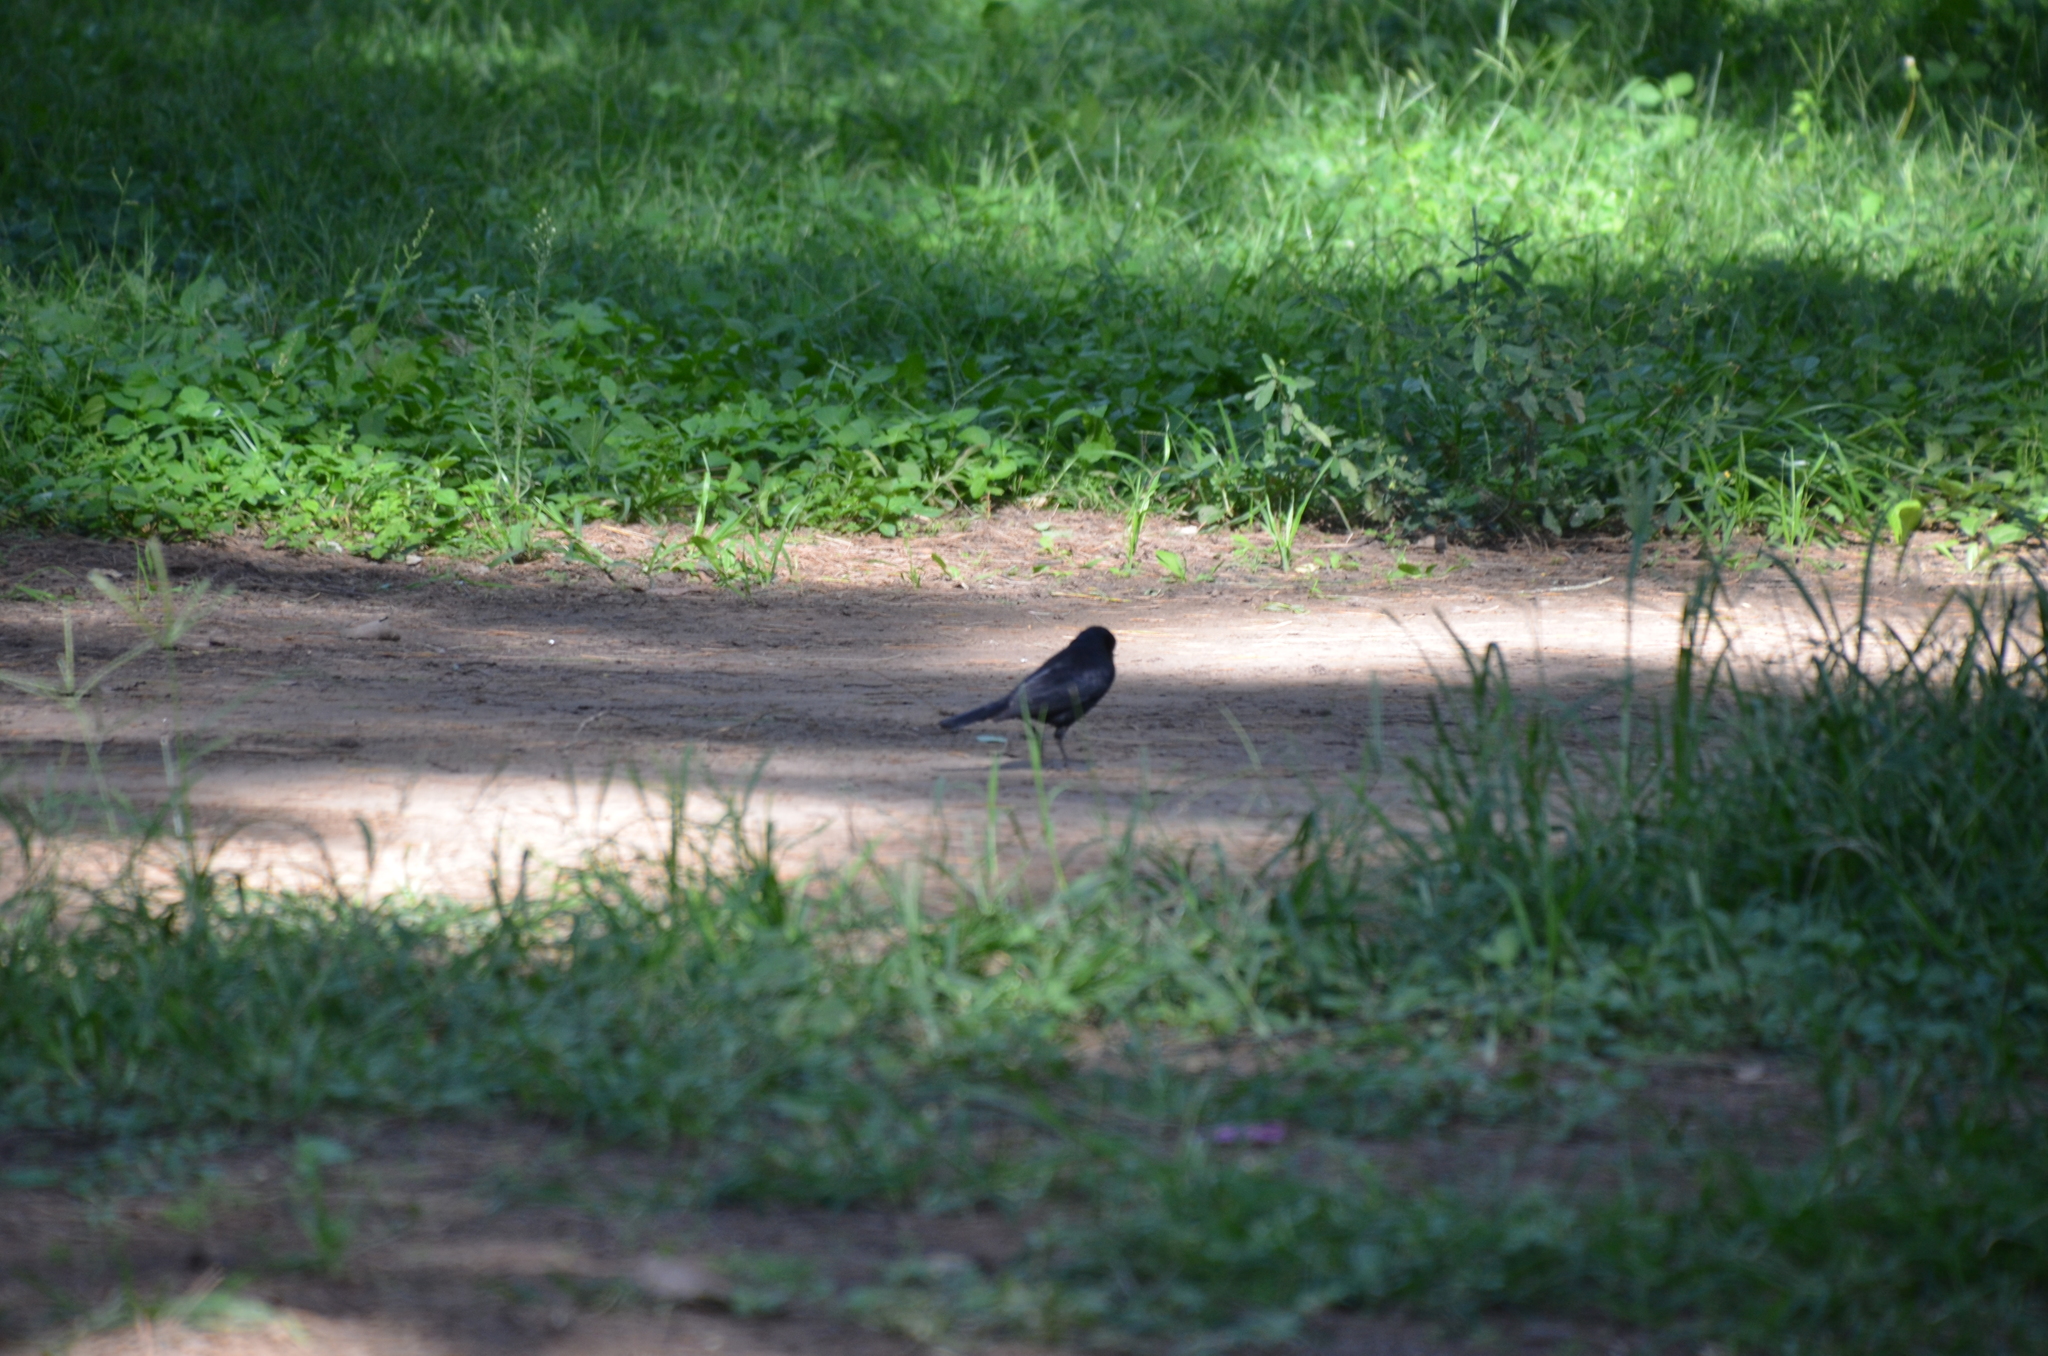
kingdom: Animalia
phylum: Chordata
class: Aves
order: Passeriformes
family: Icteridae
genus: Molothrus
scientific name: Molothrus bonariensis
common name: Shiny cowbird
